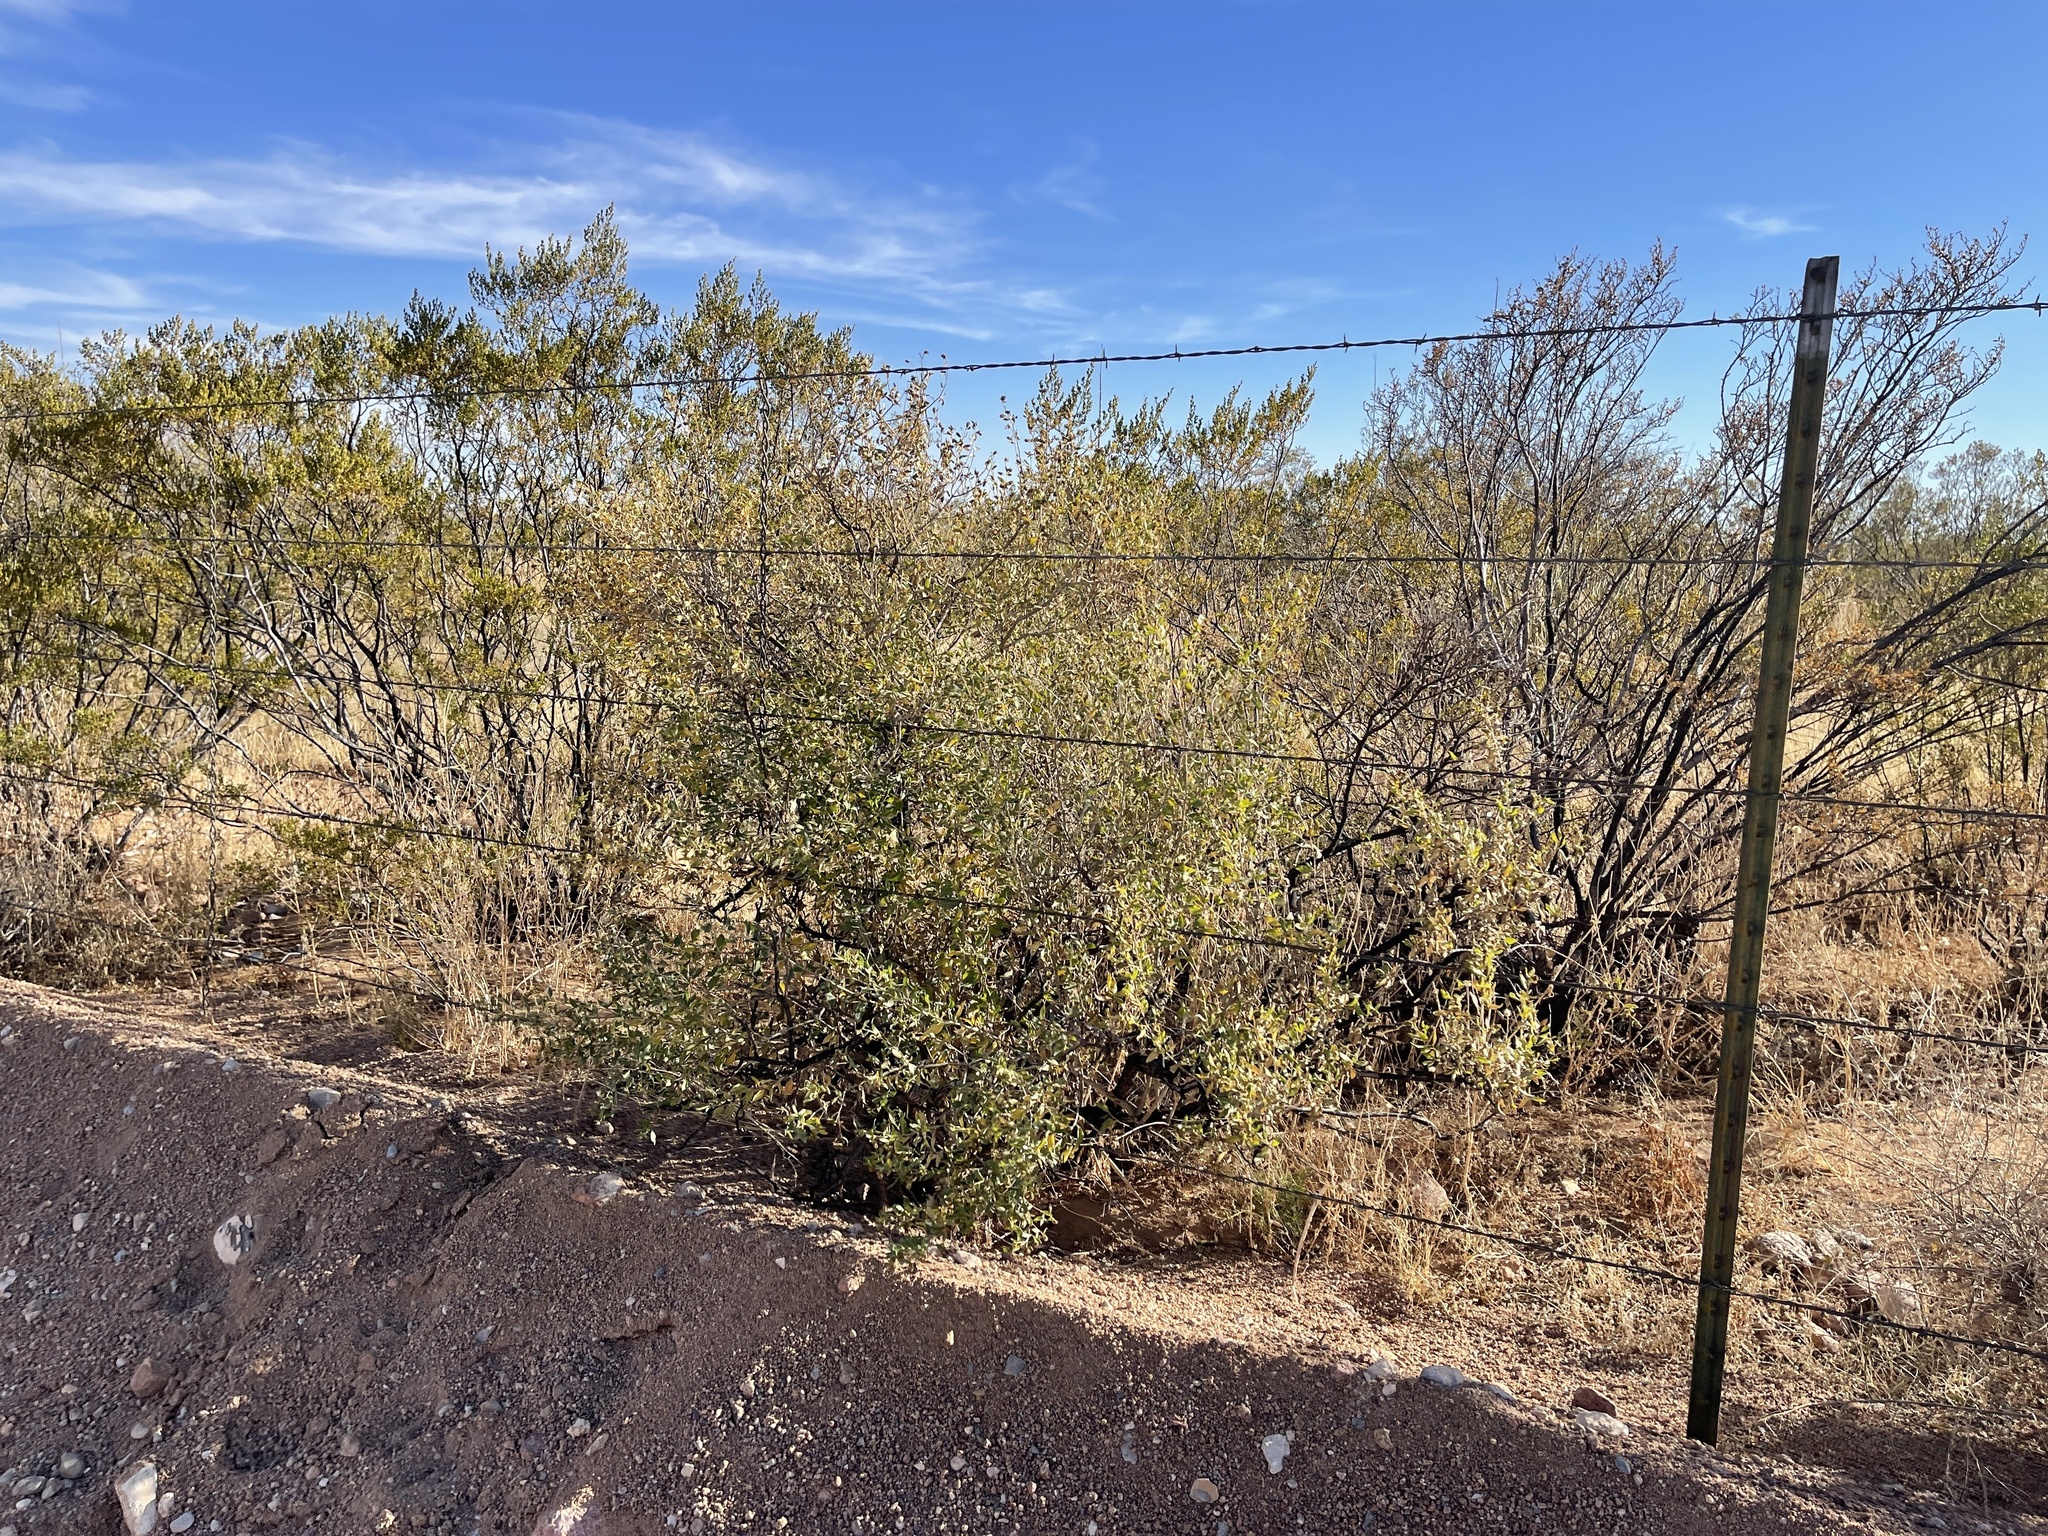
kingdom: Plantae
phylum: Tracheophyta
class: Magnoliopsida
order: Asterales
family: Asteraceae
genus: Flourensia
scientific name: Flourensia cernua
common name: Varnishbush
